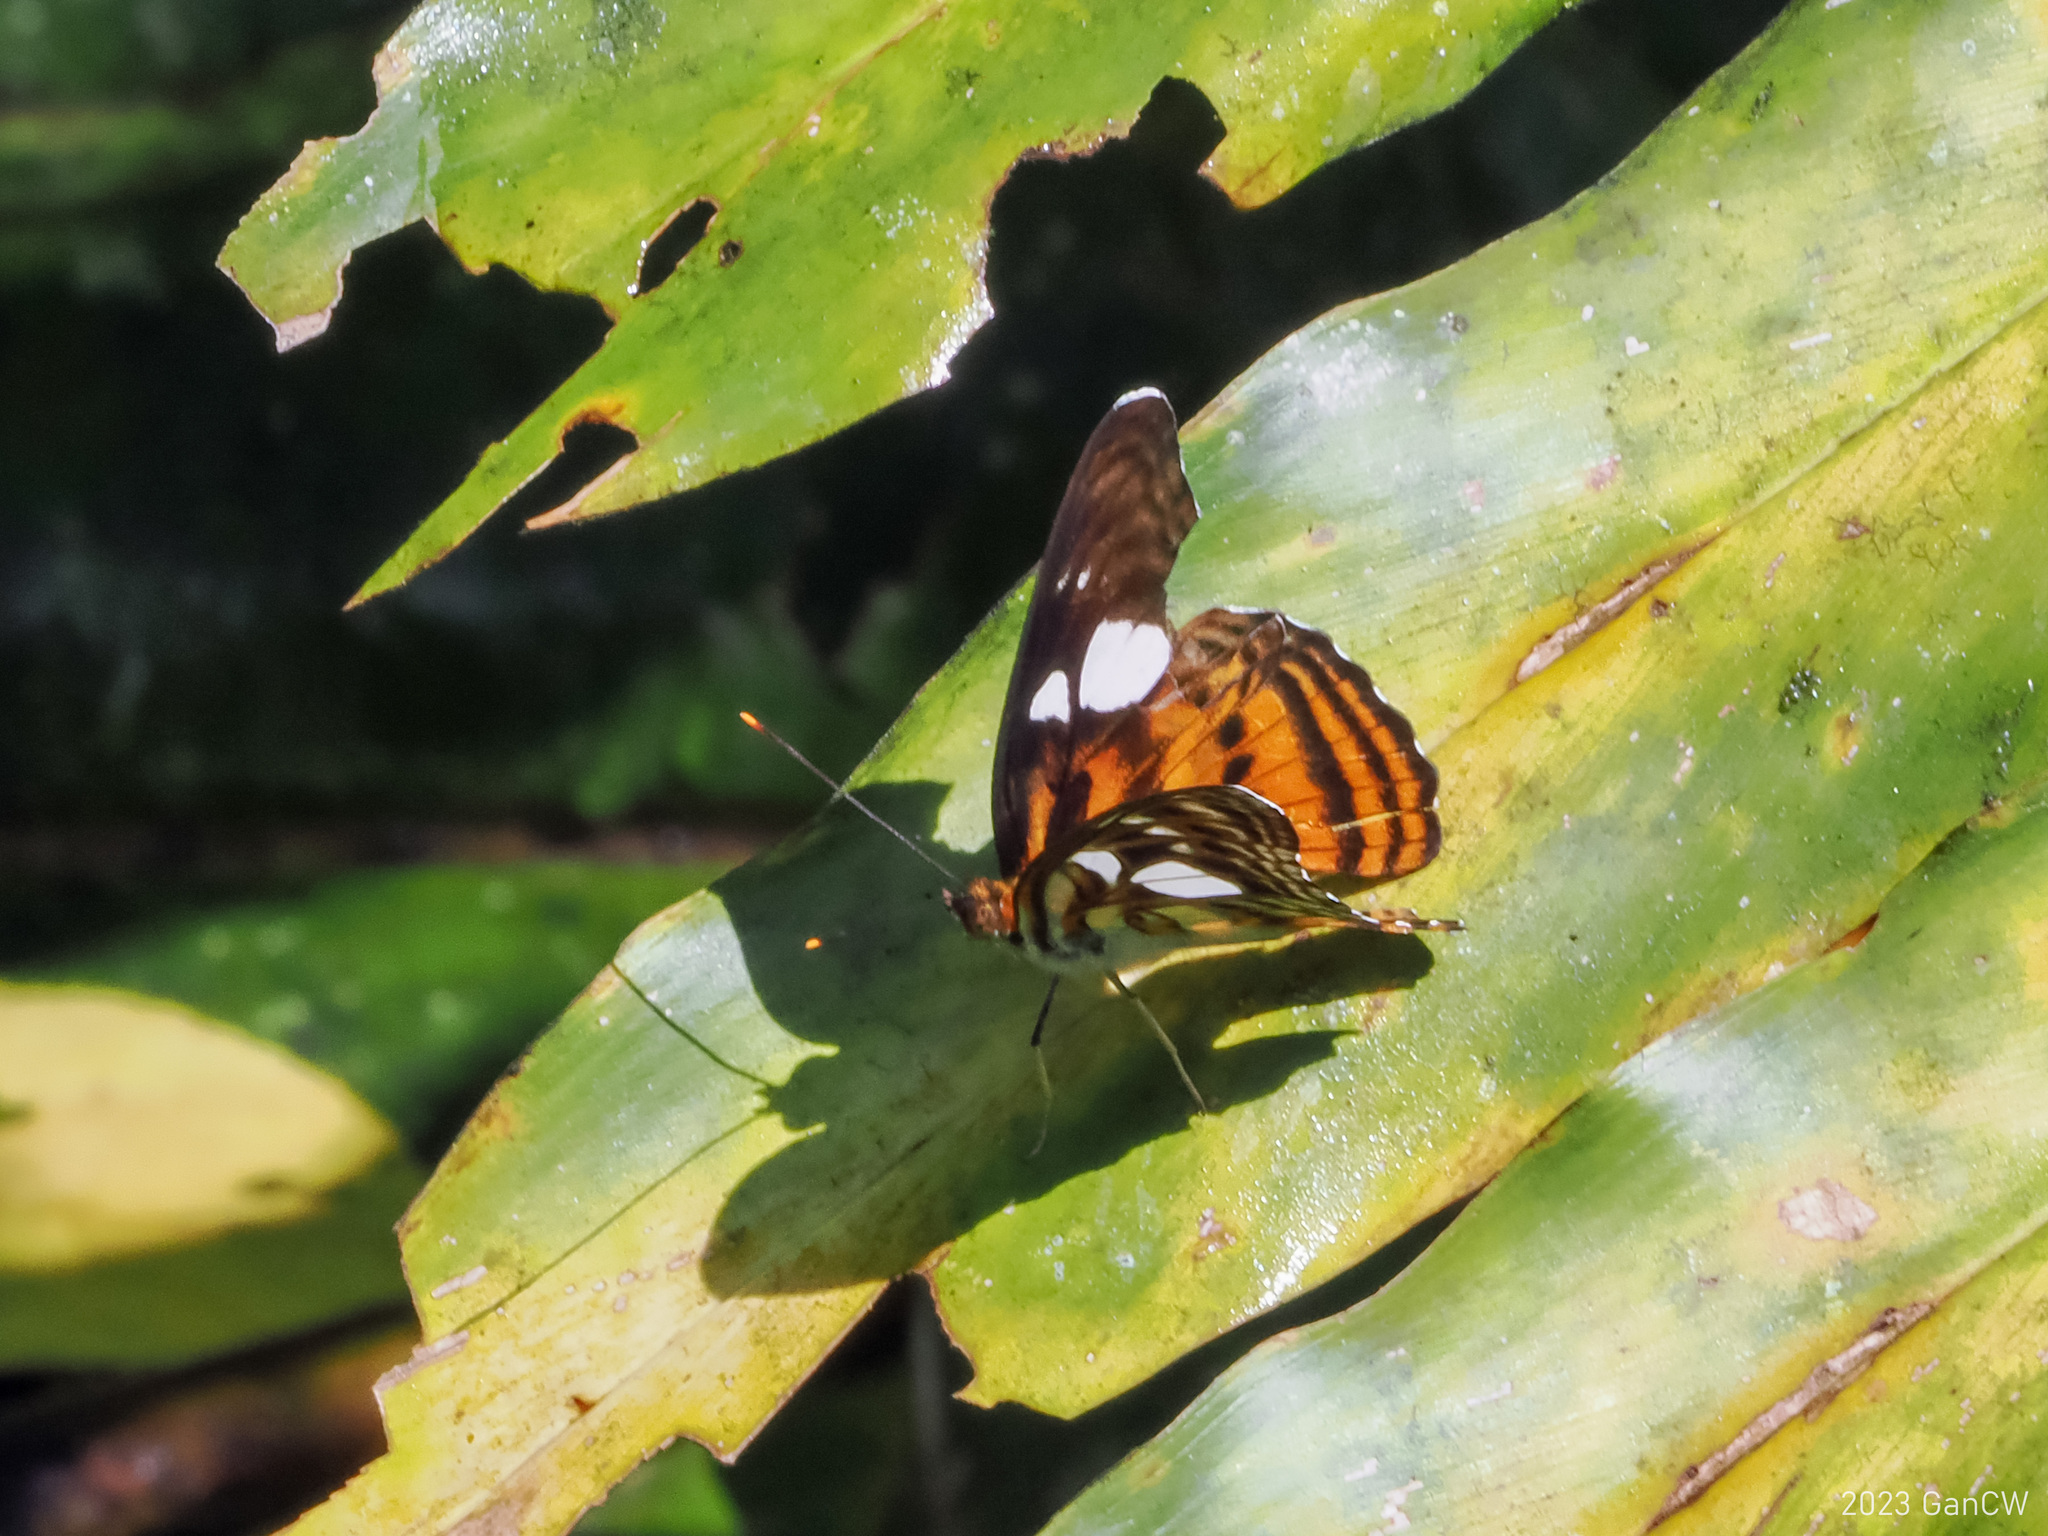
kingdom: Animalia
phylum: Arthropoda
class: Insecta
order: Lepidoptera
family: Nymphalidae
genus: Pantoporia
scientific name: Pantoporia Athyma libnites
